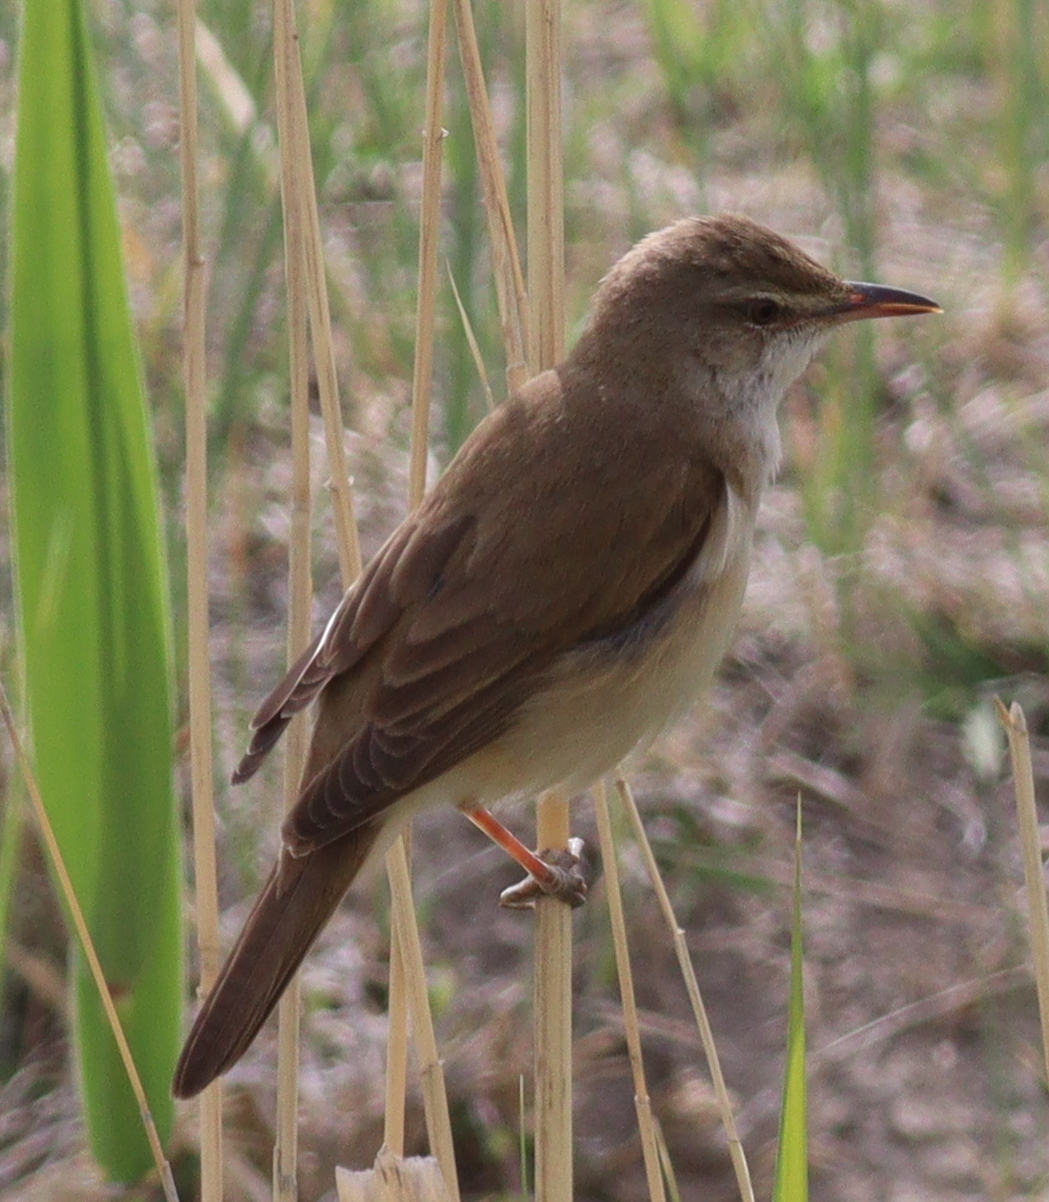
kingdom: Animalia
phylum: Chordata
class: Aves
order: Passeriformes
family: Acrocephalidae
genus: Acrocephalus
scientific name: Acrocephalus arundinaceus
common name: Great reed warbler
